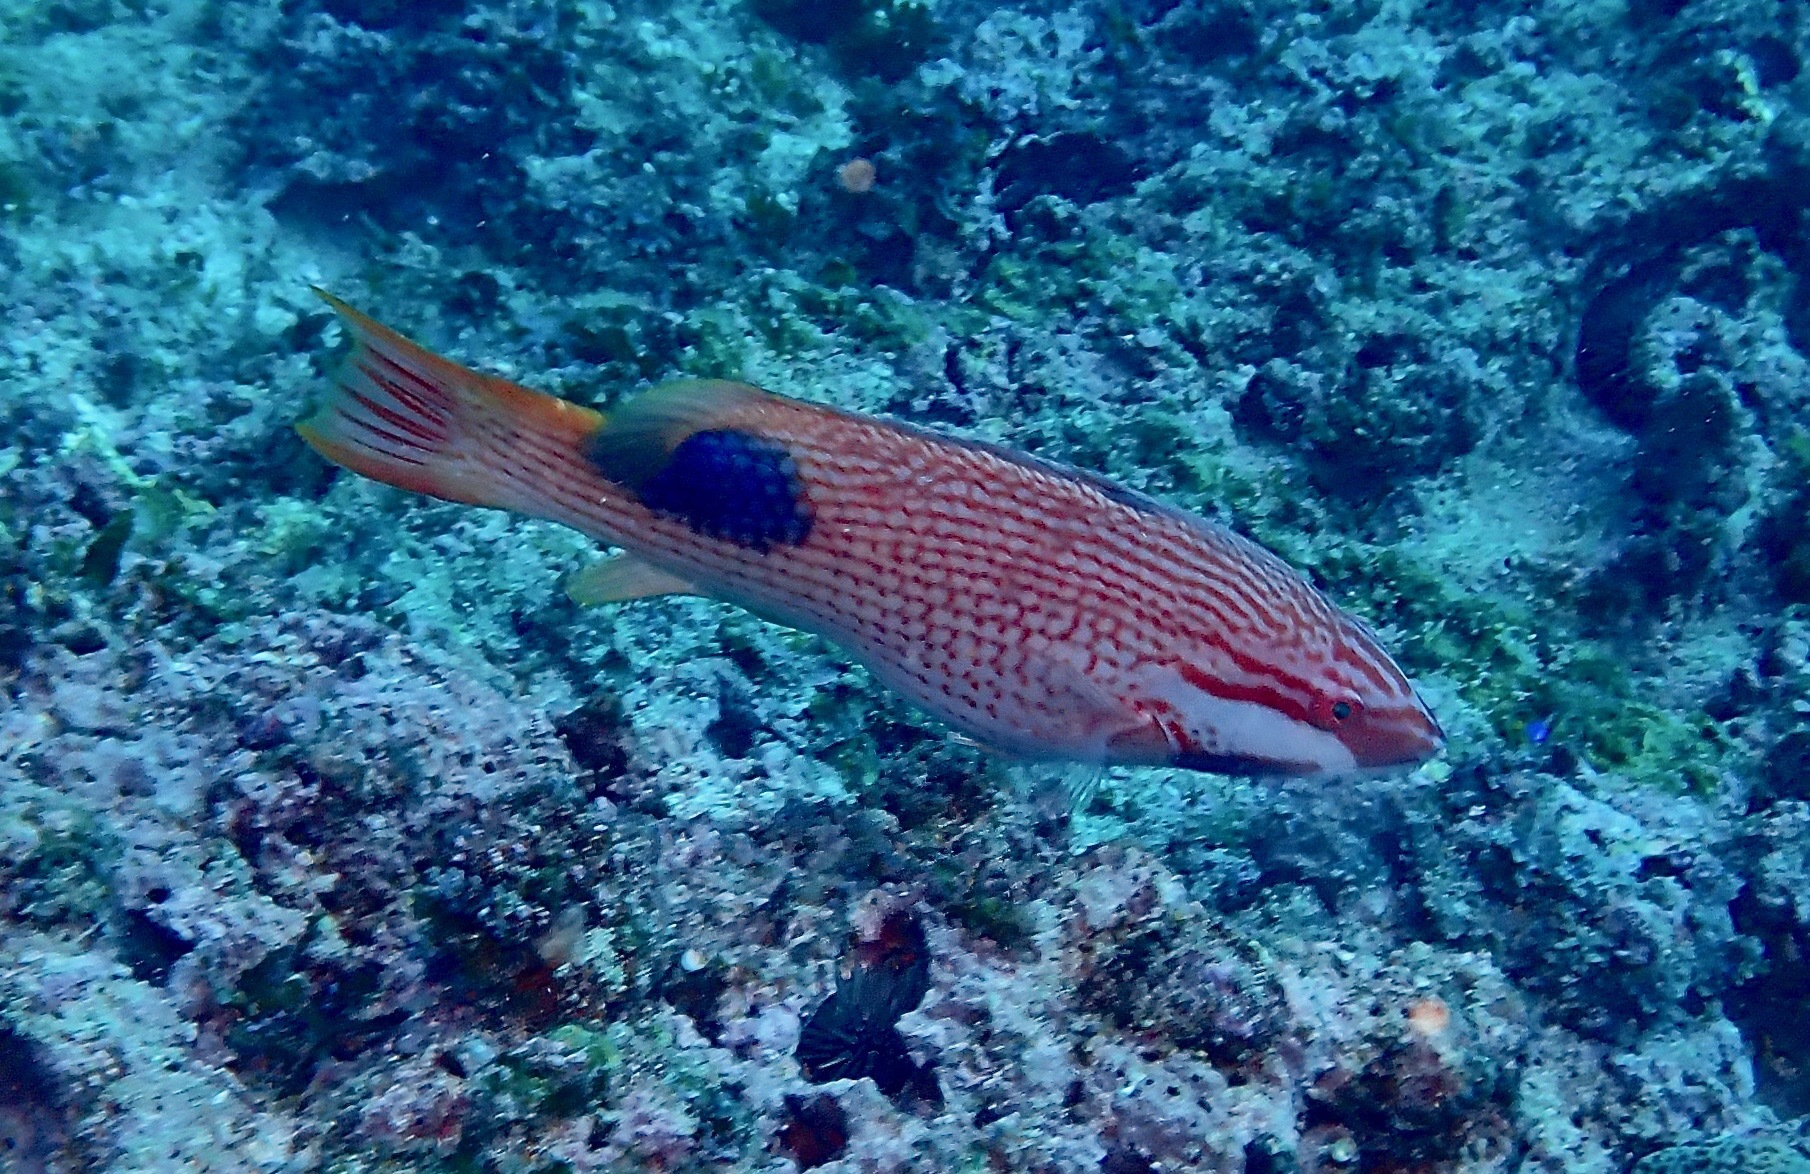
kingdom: Animalia
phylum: Chordata
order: Perciformes
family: Labridae
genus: Bodianus
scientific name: Bodianus bilunulatus
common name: Tarry hogfish
